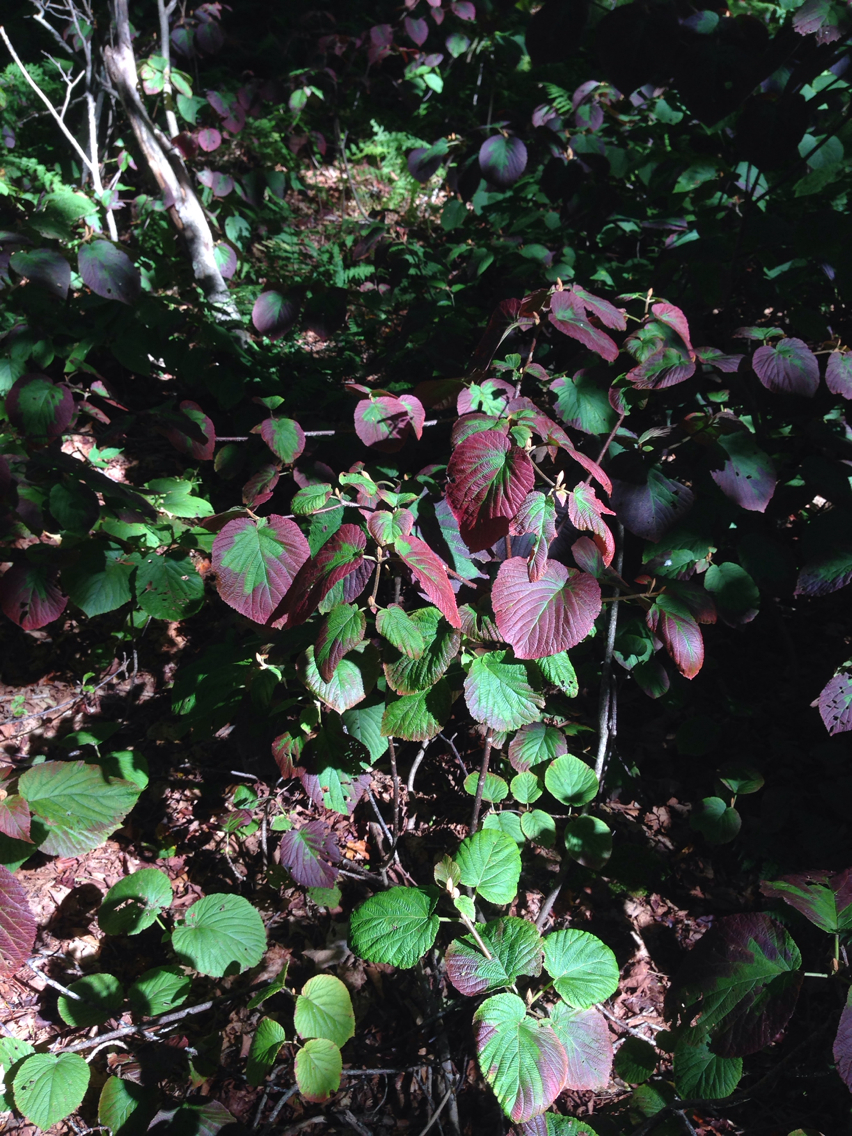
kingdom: Plantae
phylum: Tracheophyta
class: Magnoliopsida
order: Dipsacales
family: Viburnaceae
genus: Viburnum
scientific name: Viburnum lantanoides
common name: Hobblebush
